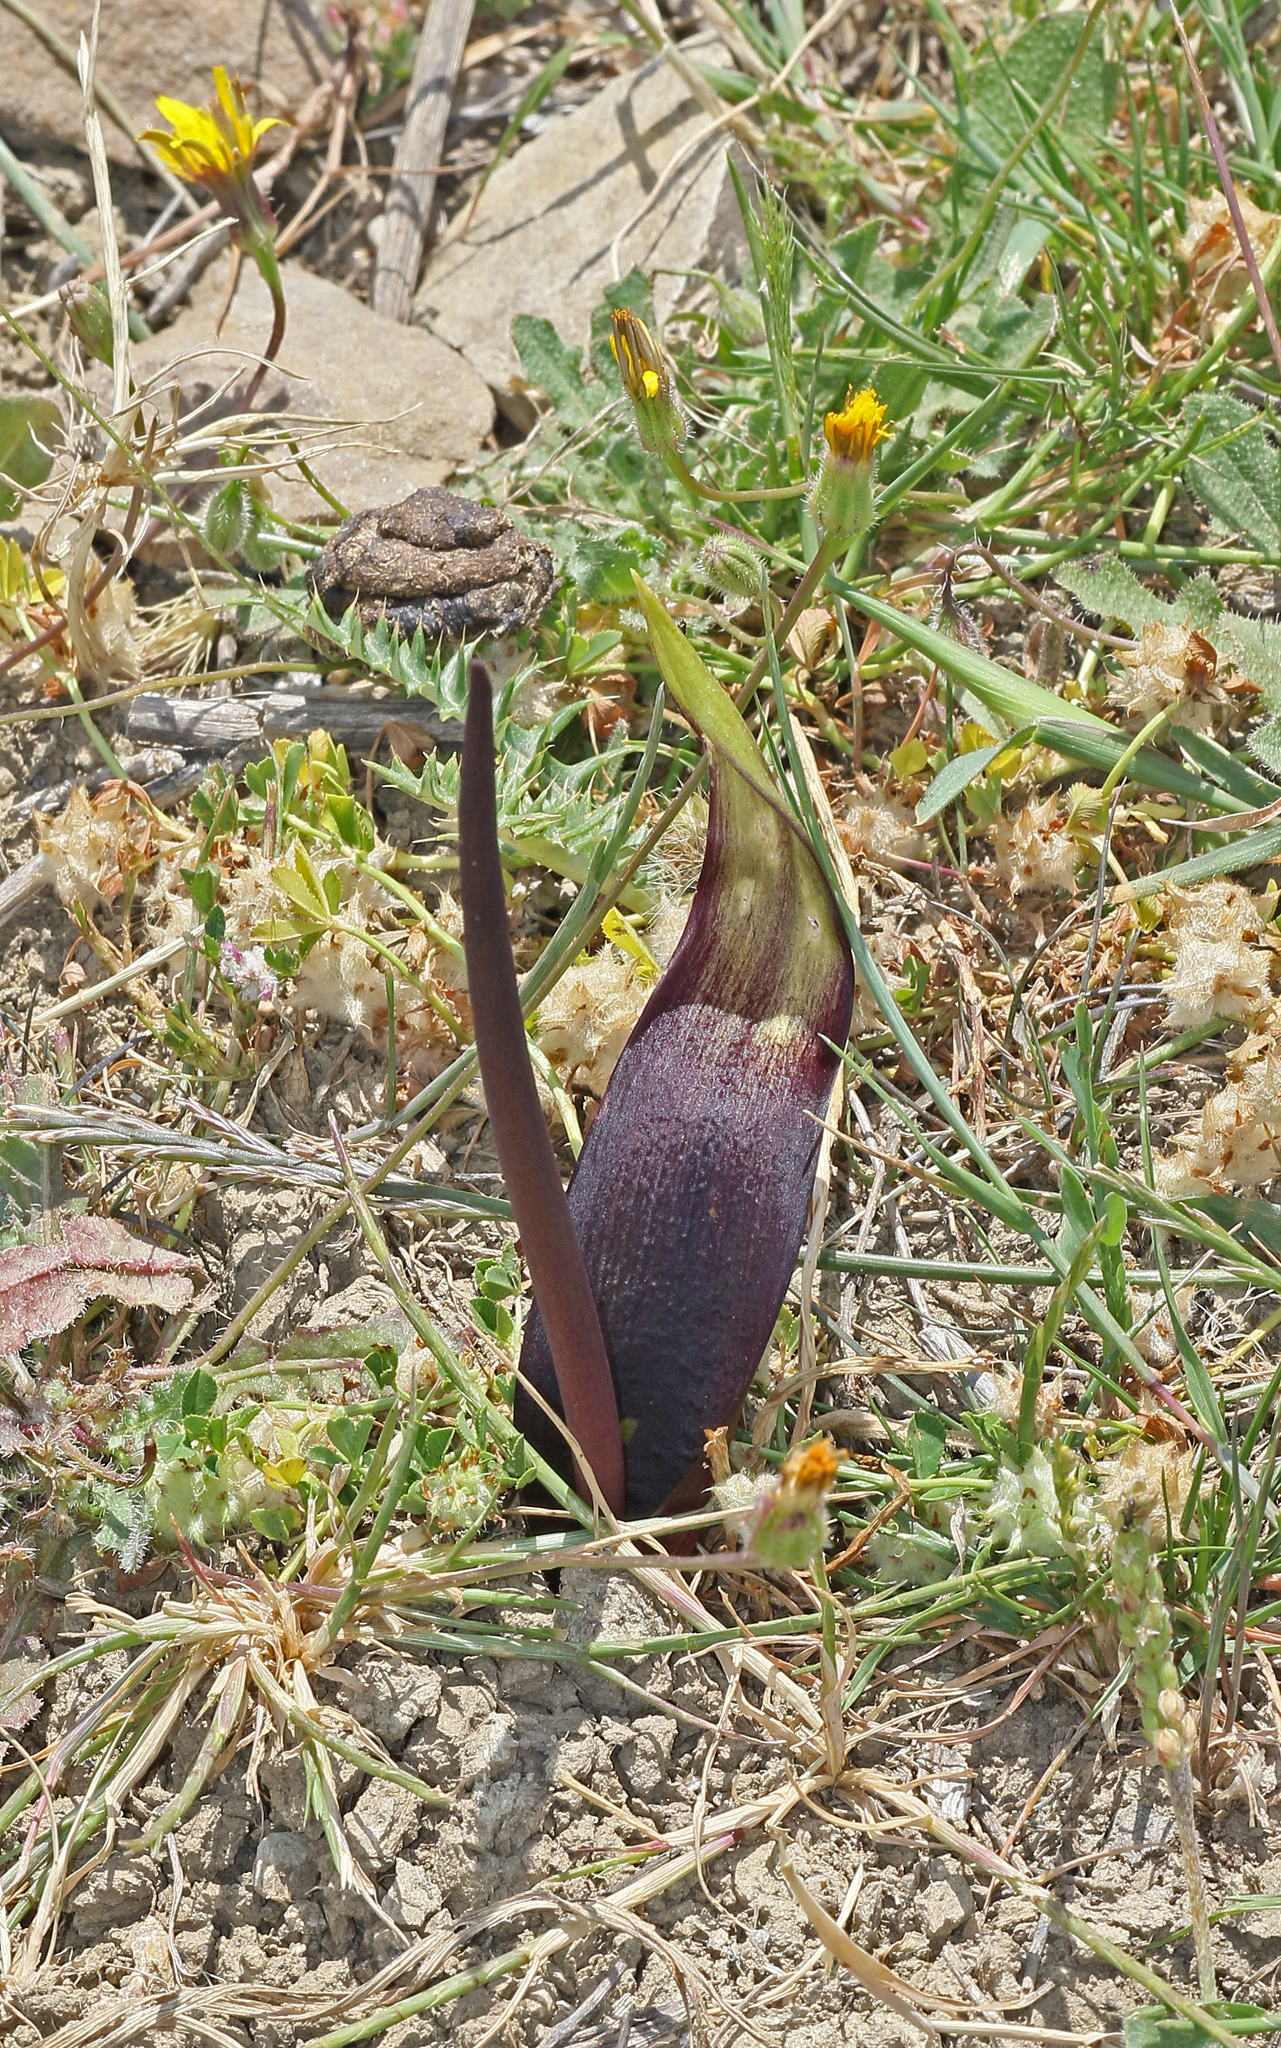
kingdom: Plantae
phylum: Tracheophyta
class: Liliopsida
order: Alismatales
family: Araceae
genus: Biarum
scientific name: Biarum tenuifolium
